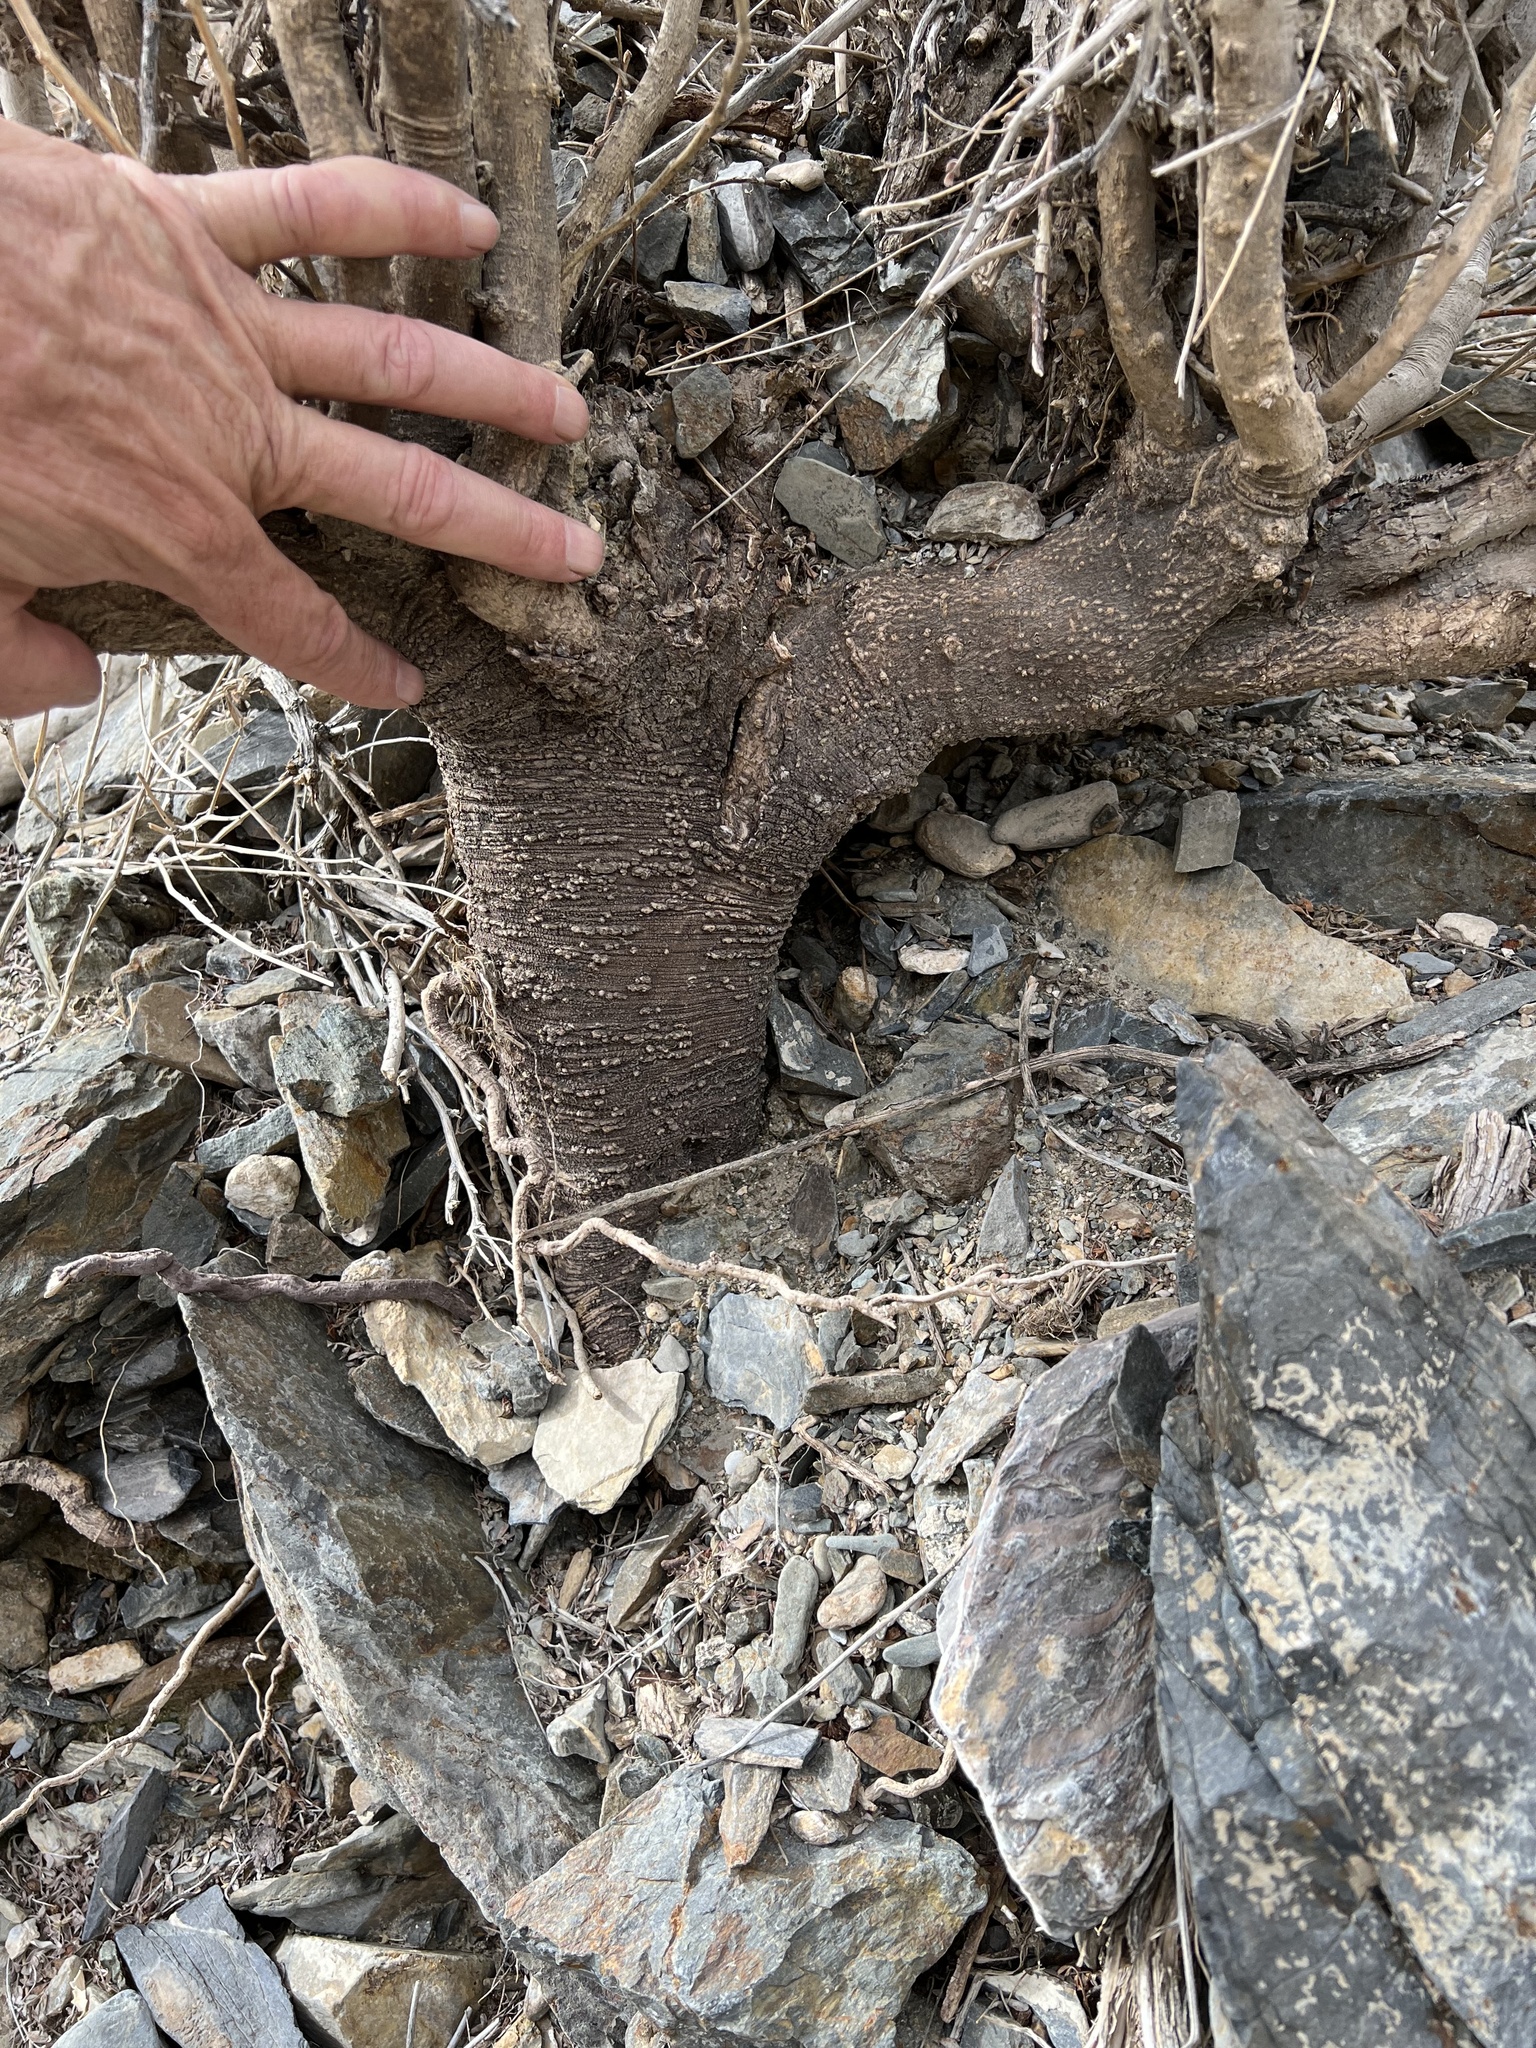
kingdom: Plantae
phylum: Tracheophyta
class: Magnoliopsida
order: Fabales
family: Fabaceae
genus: Psorothamnus
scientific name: Psorothamnus arborescens
